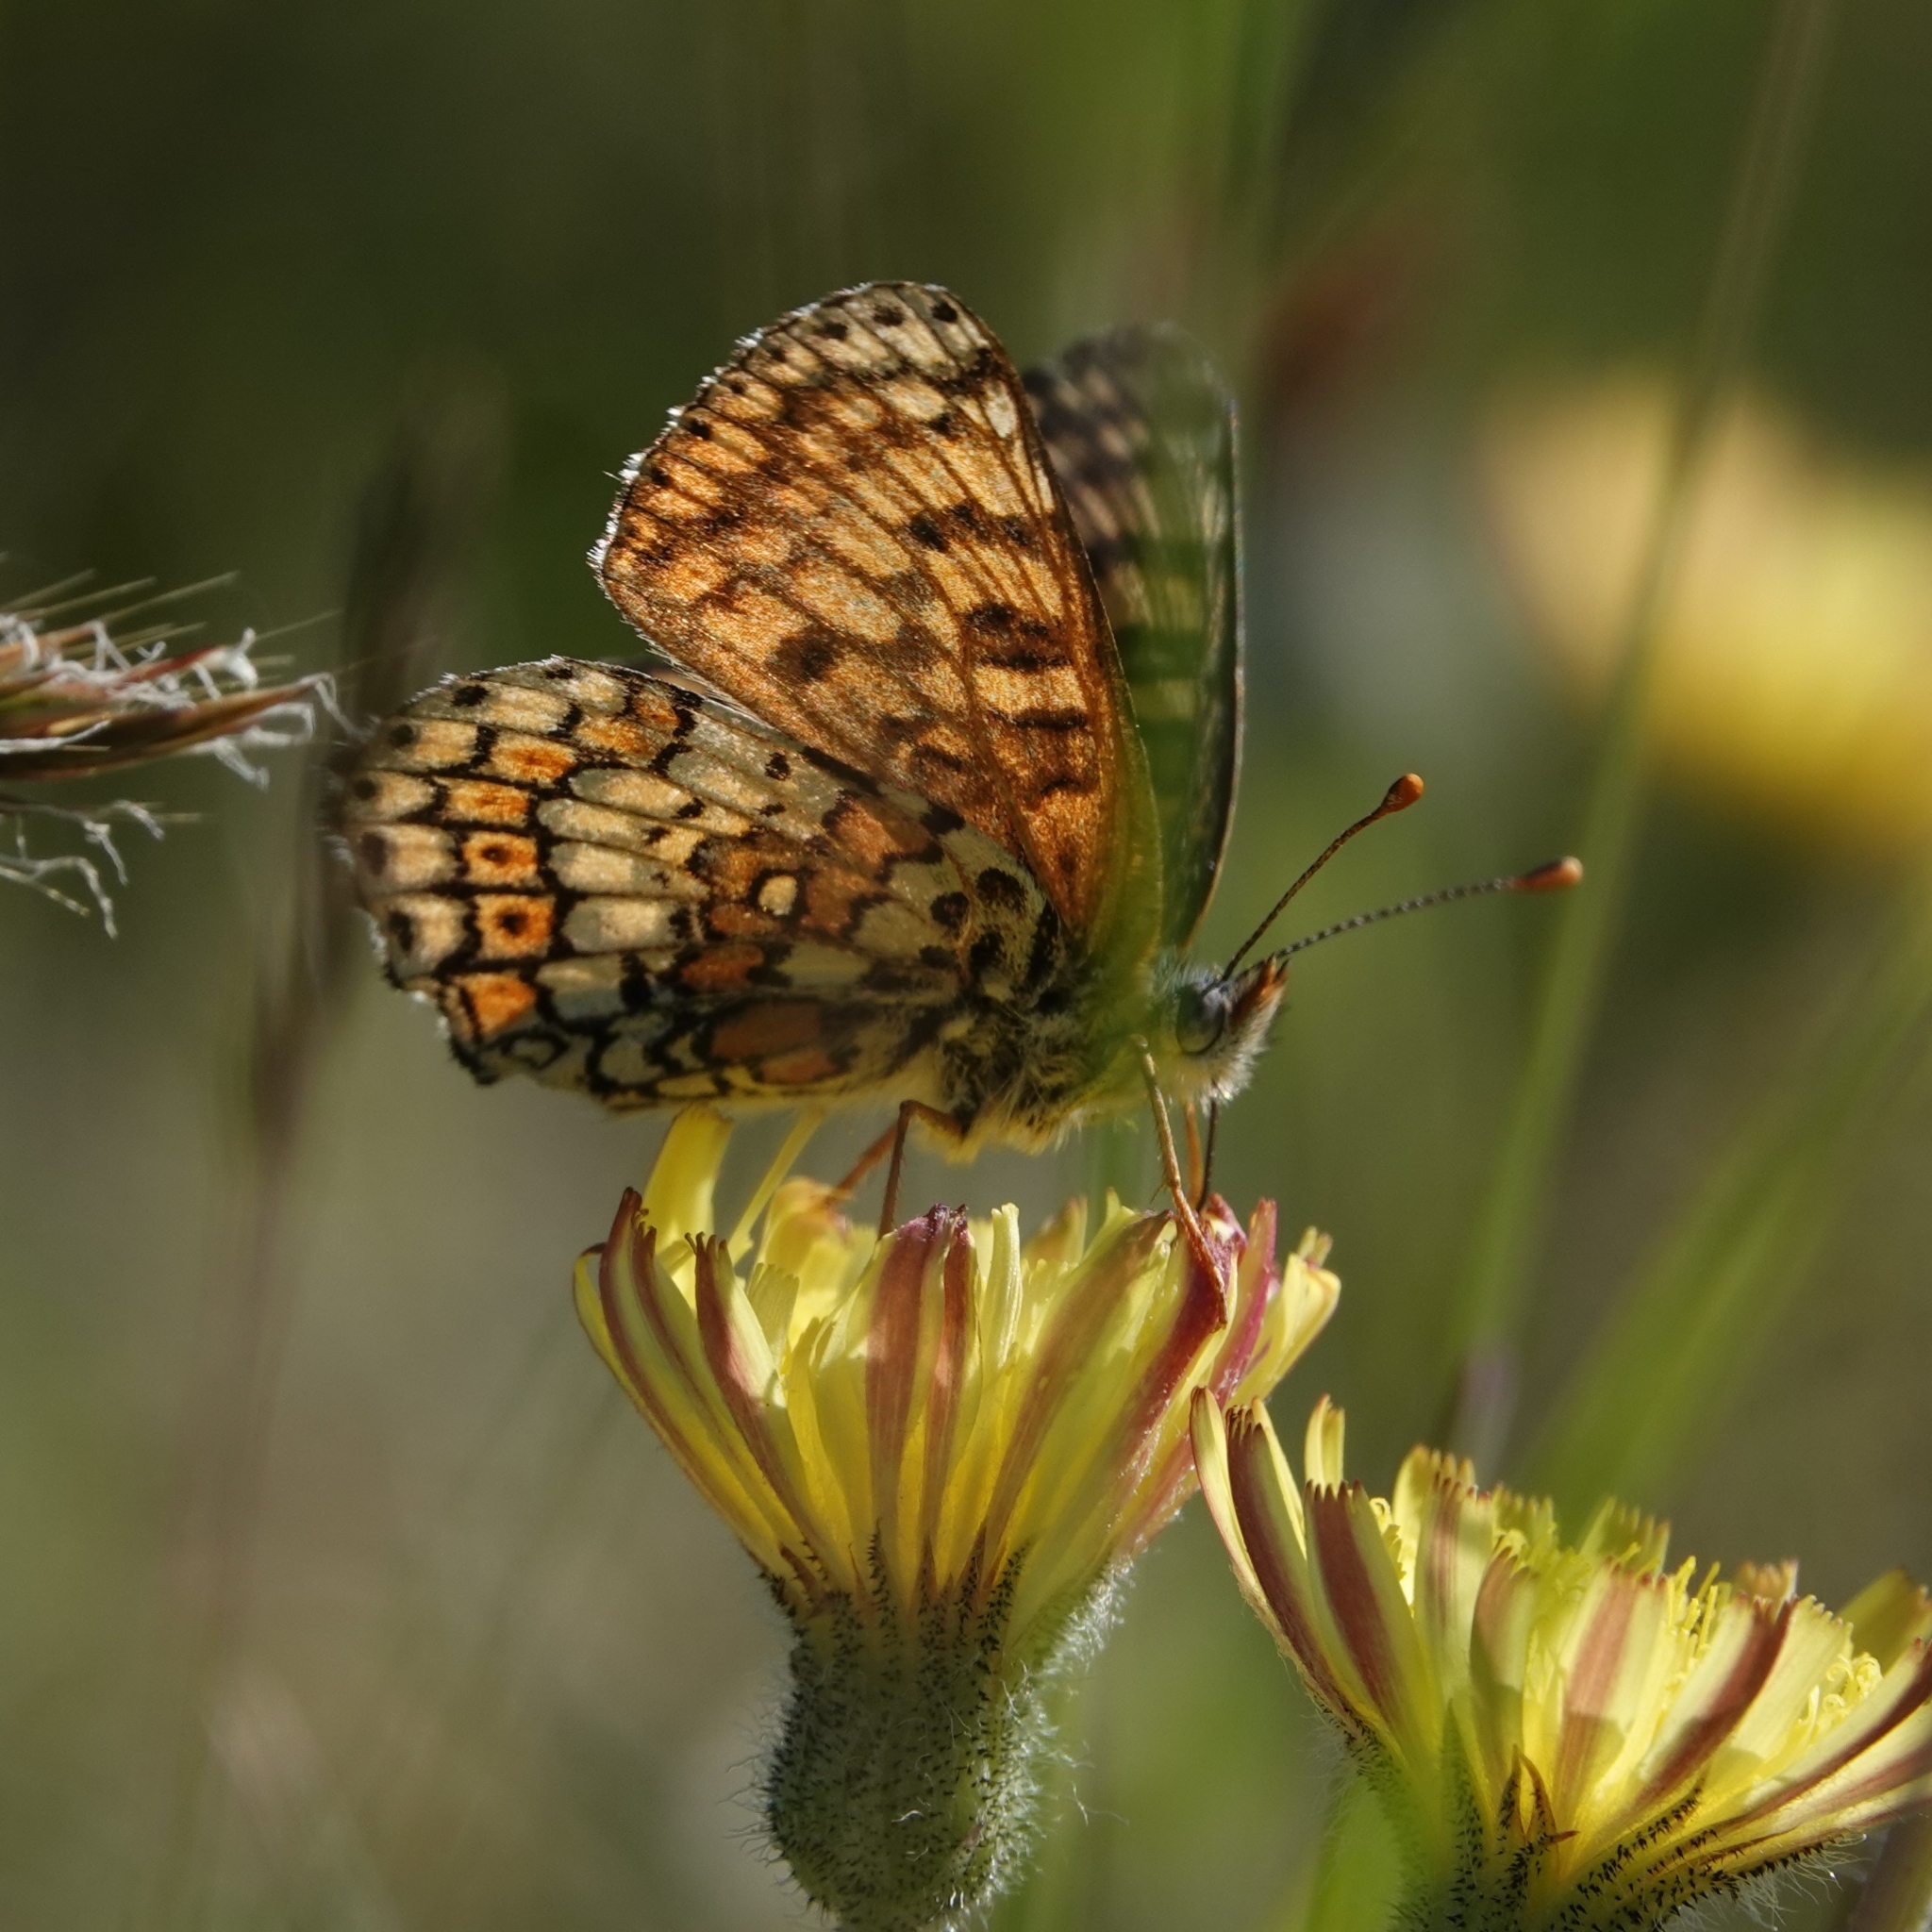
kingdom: Animalia
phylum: Arthropoda
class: Insecta
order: Lepidoptera
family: Nymphalidae
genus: Melitaea
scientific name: Melitaea cinxia
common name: Glanville fritillary
